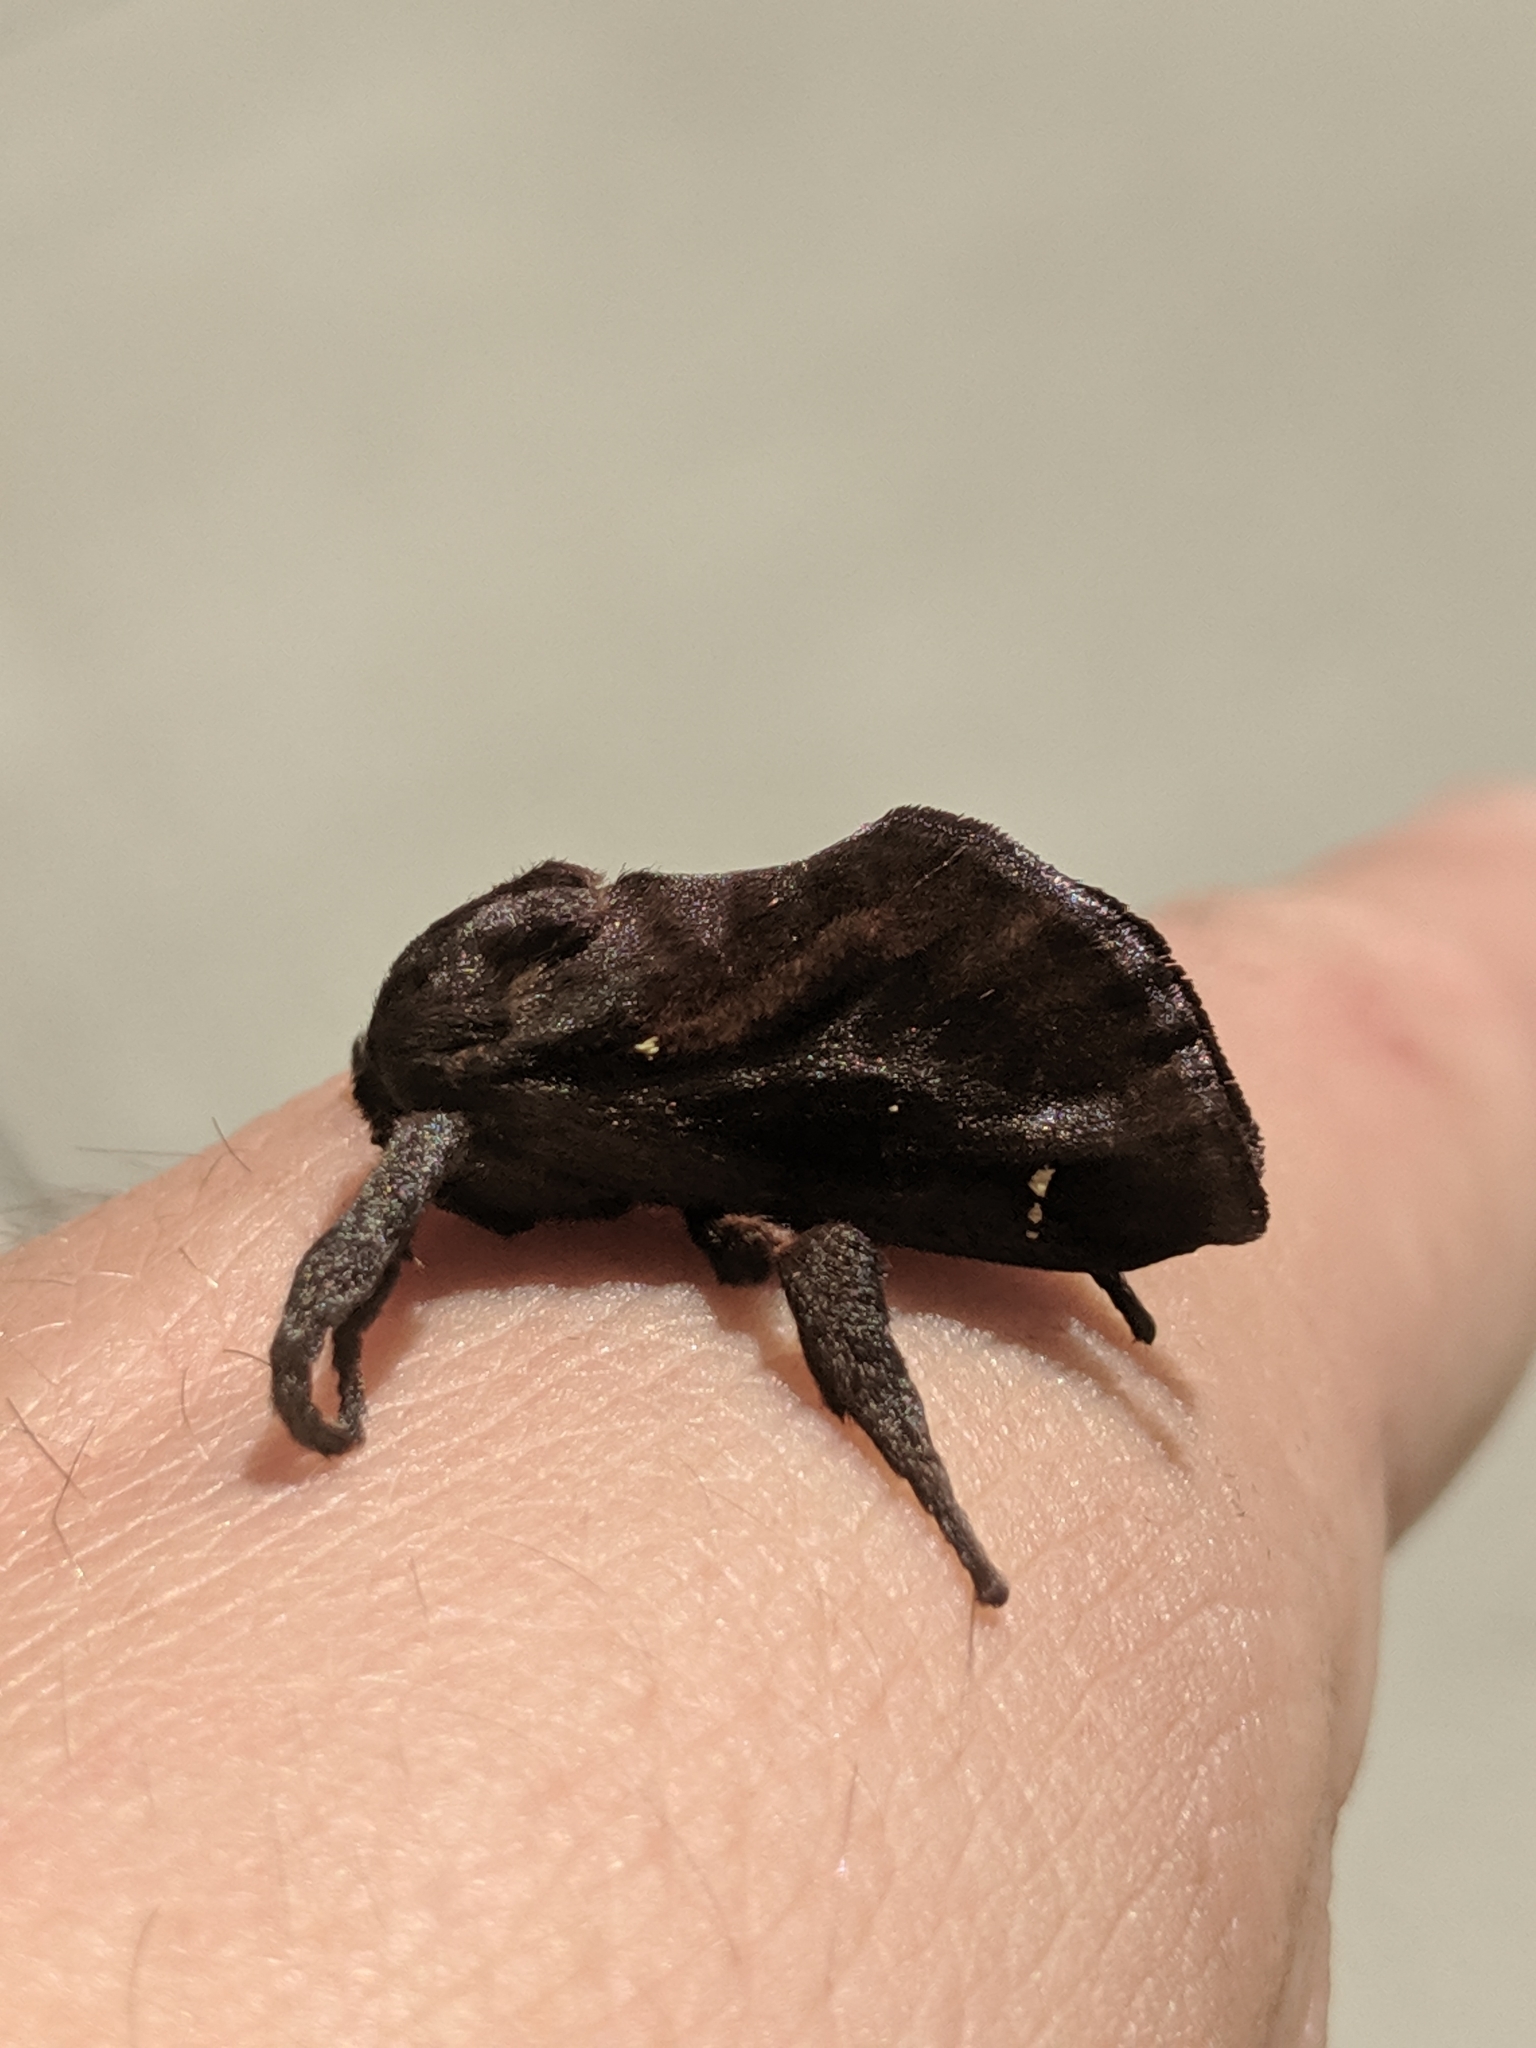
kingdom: Animalia
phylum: Arthropoda
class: Insecta
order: Lepidoptera
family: Limacodidae
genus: Acharia
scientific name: Acharia stimulea
